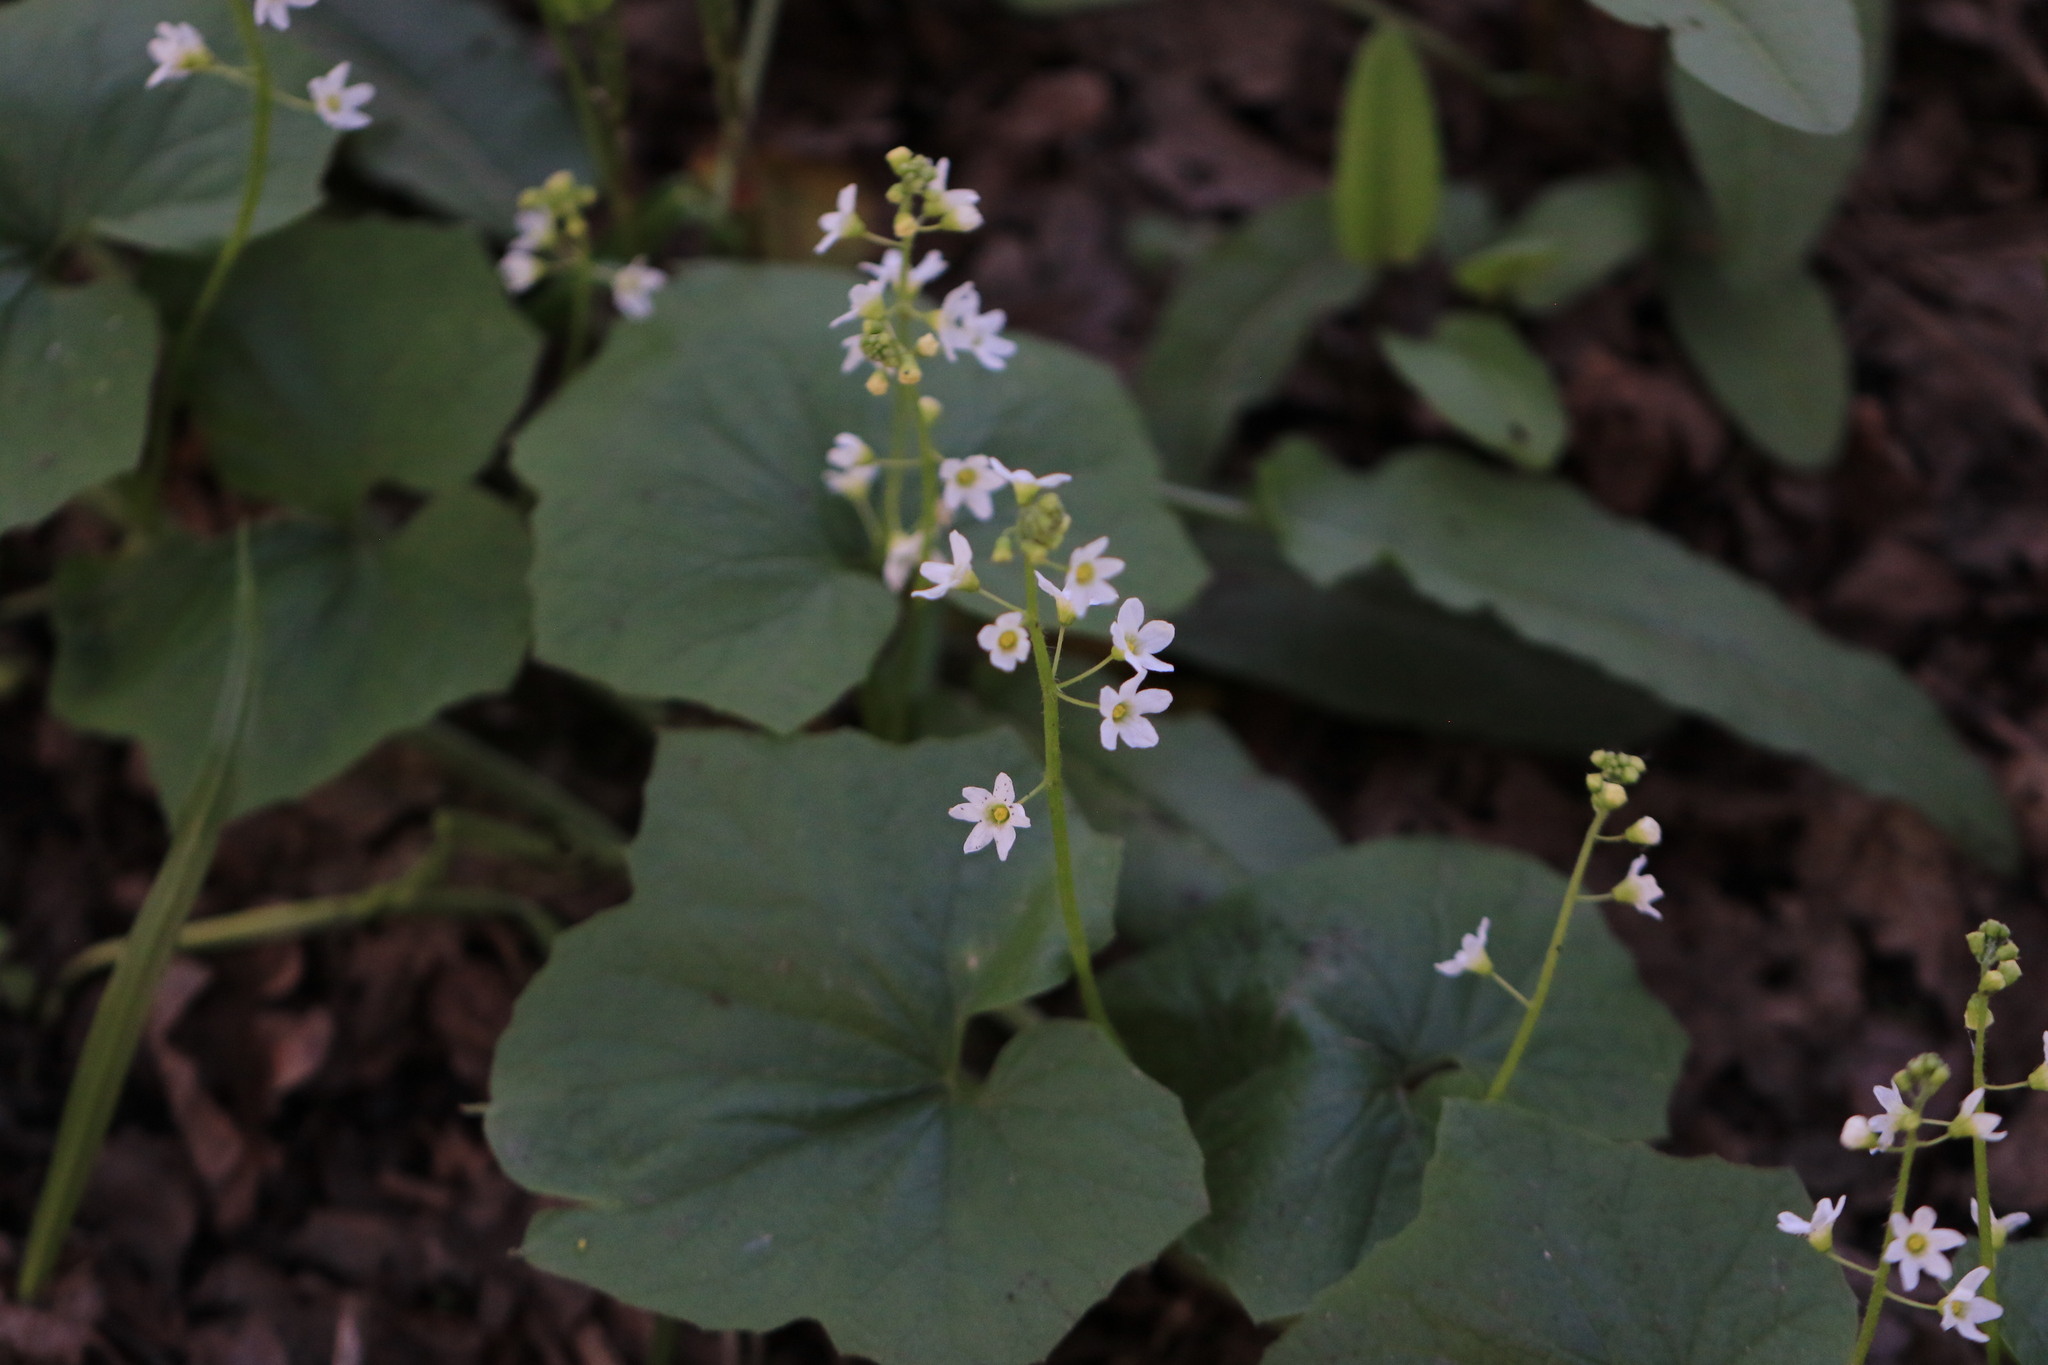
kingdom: Plantae
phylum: Tracheophyta
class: Magnoliopsida
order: Cucurbitales
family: Cucurbitaceae
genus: Marah
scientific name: Marah oregana
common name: Coastal manroot
